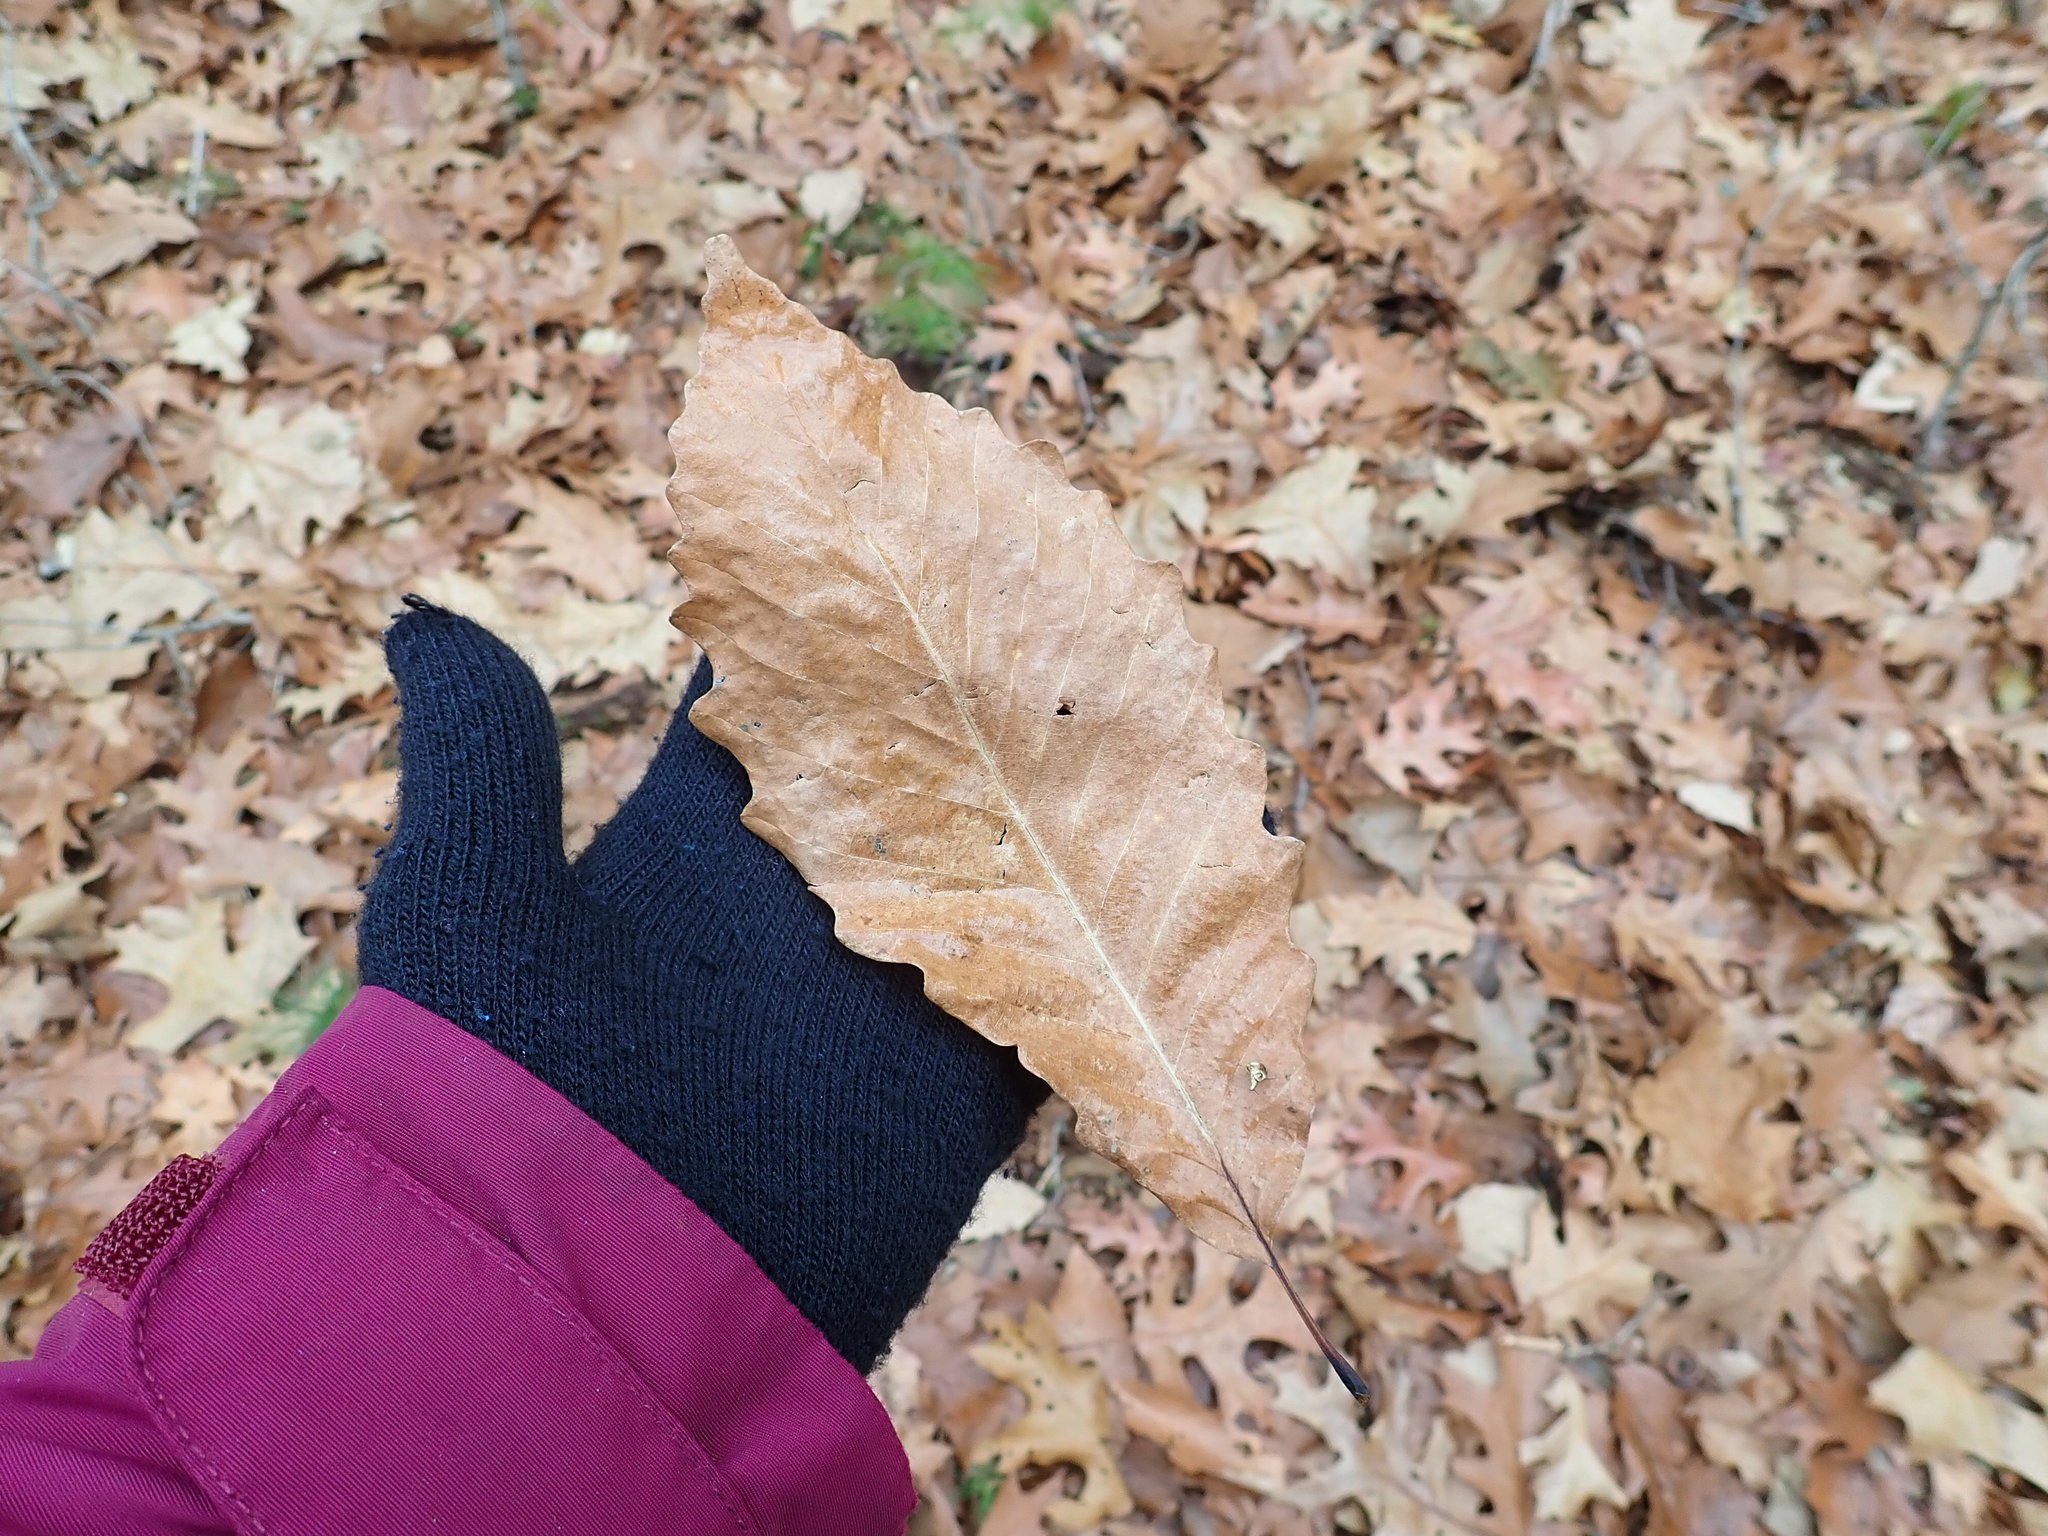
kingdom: Plantae
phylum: Tracheophyta
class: Magnoliopsida
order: Fagales
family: Fagaceae
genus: Quercus
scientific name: Quercus montana
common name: Chestnut oak
